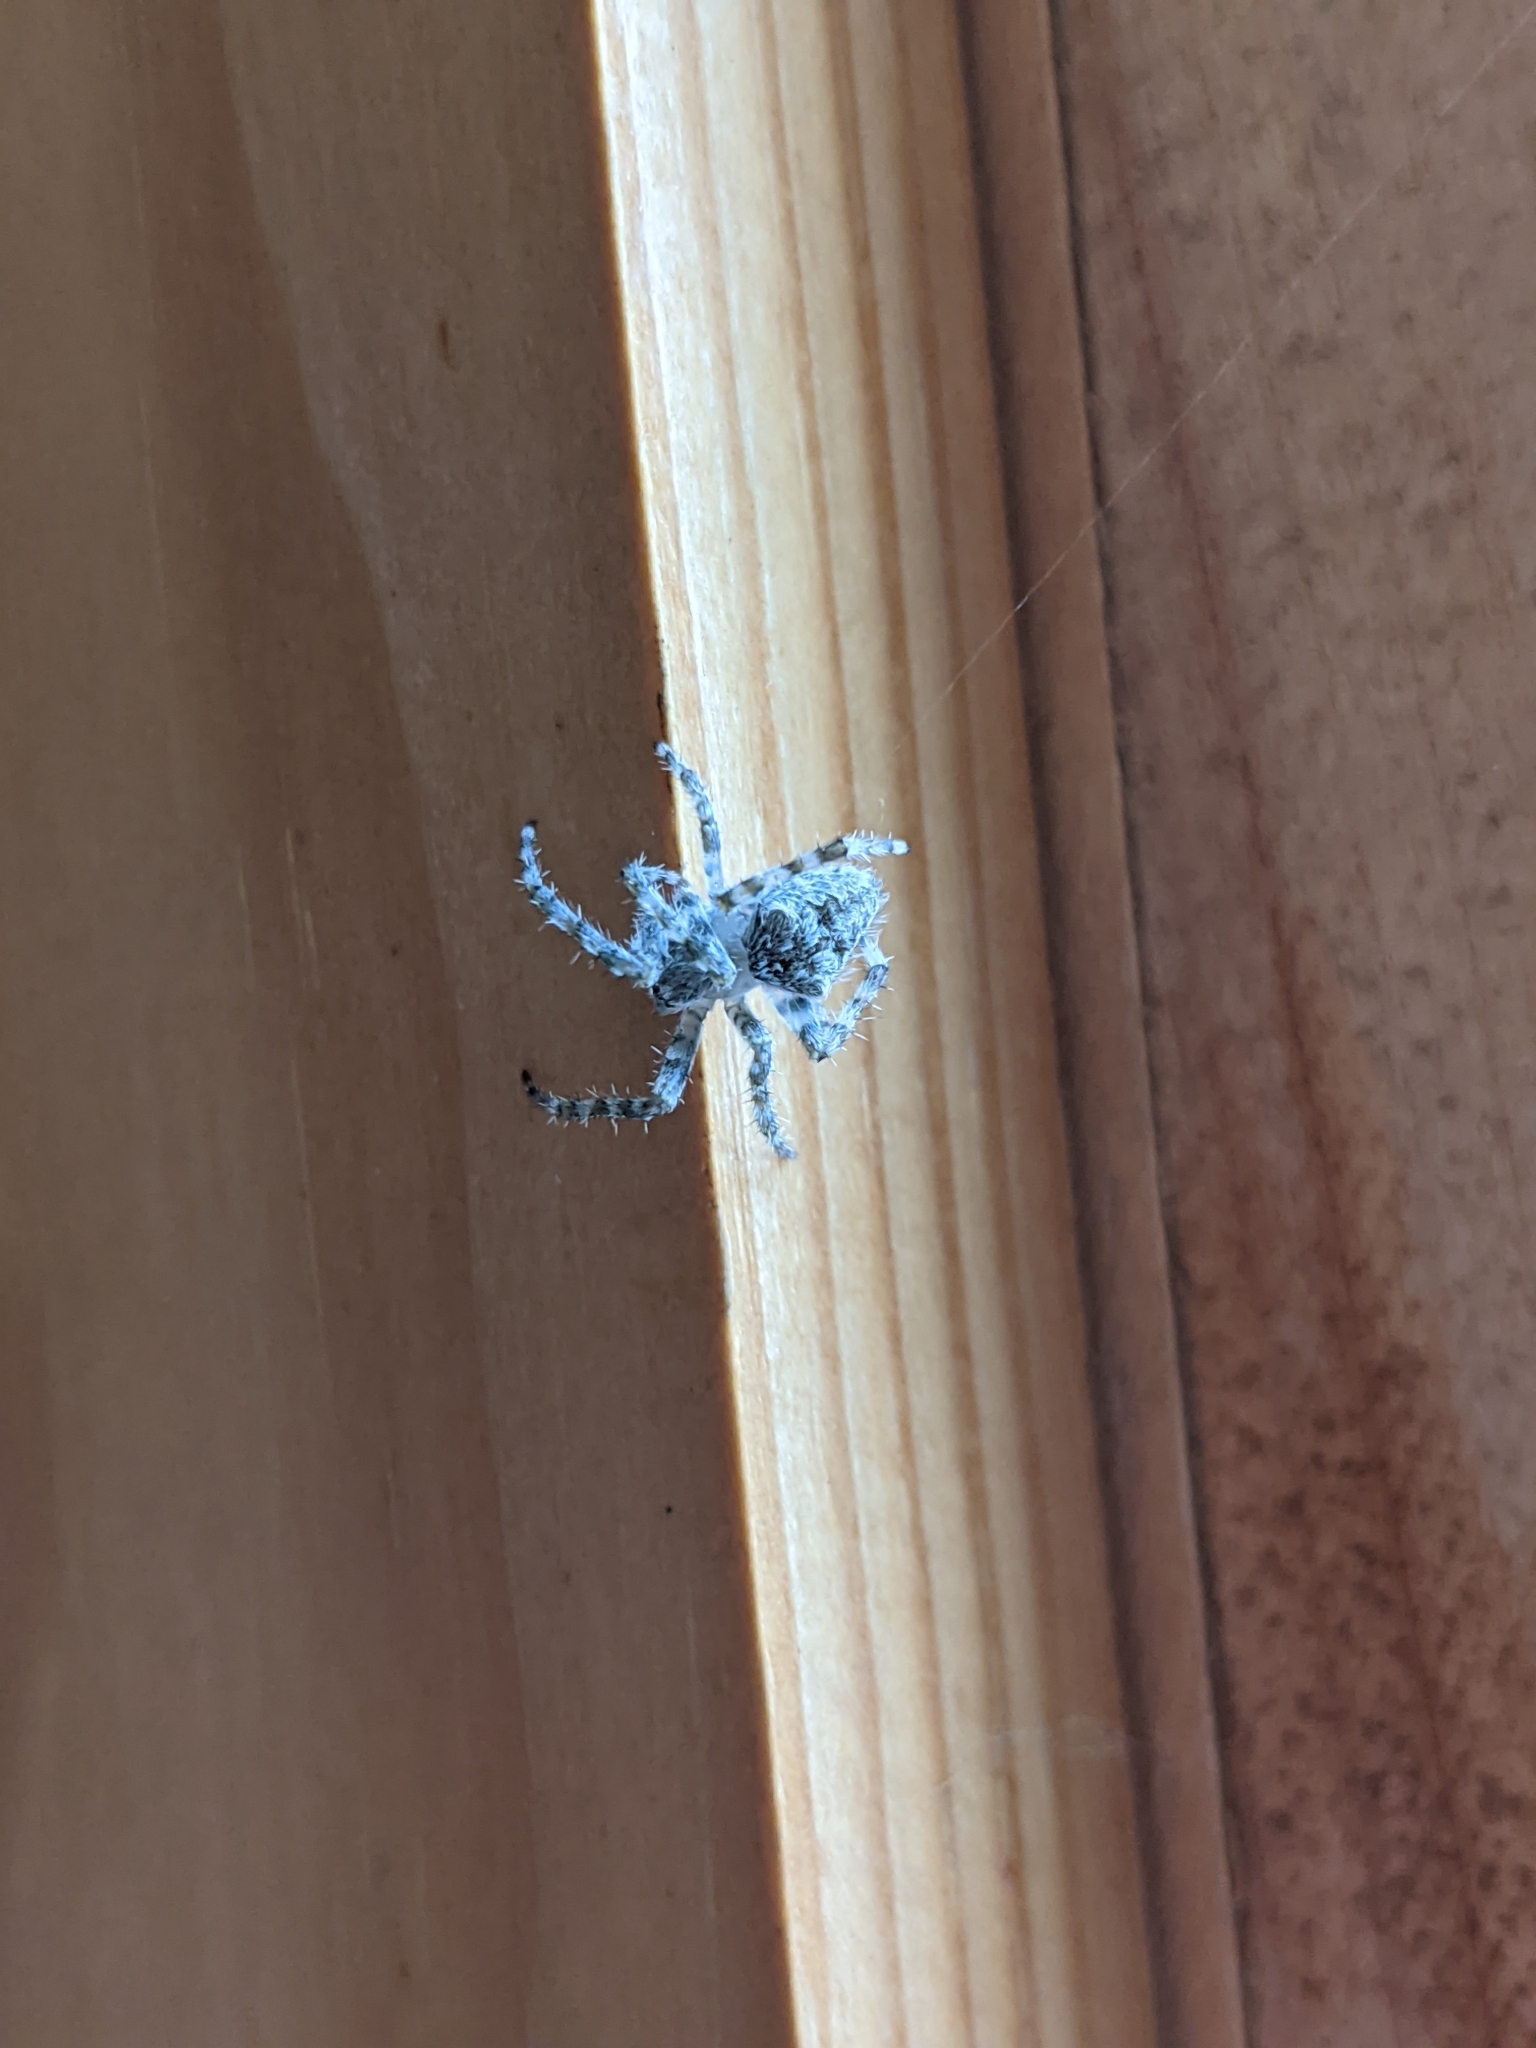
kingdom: Animalia
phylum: Arthropoda
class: Arachnida
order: Araneae
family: Araneidae
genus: Araneus
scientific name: Araneus cavaticus
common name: Barn orbweaver
